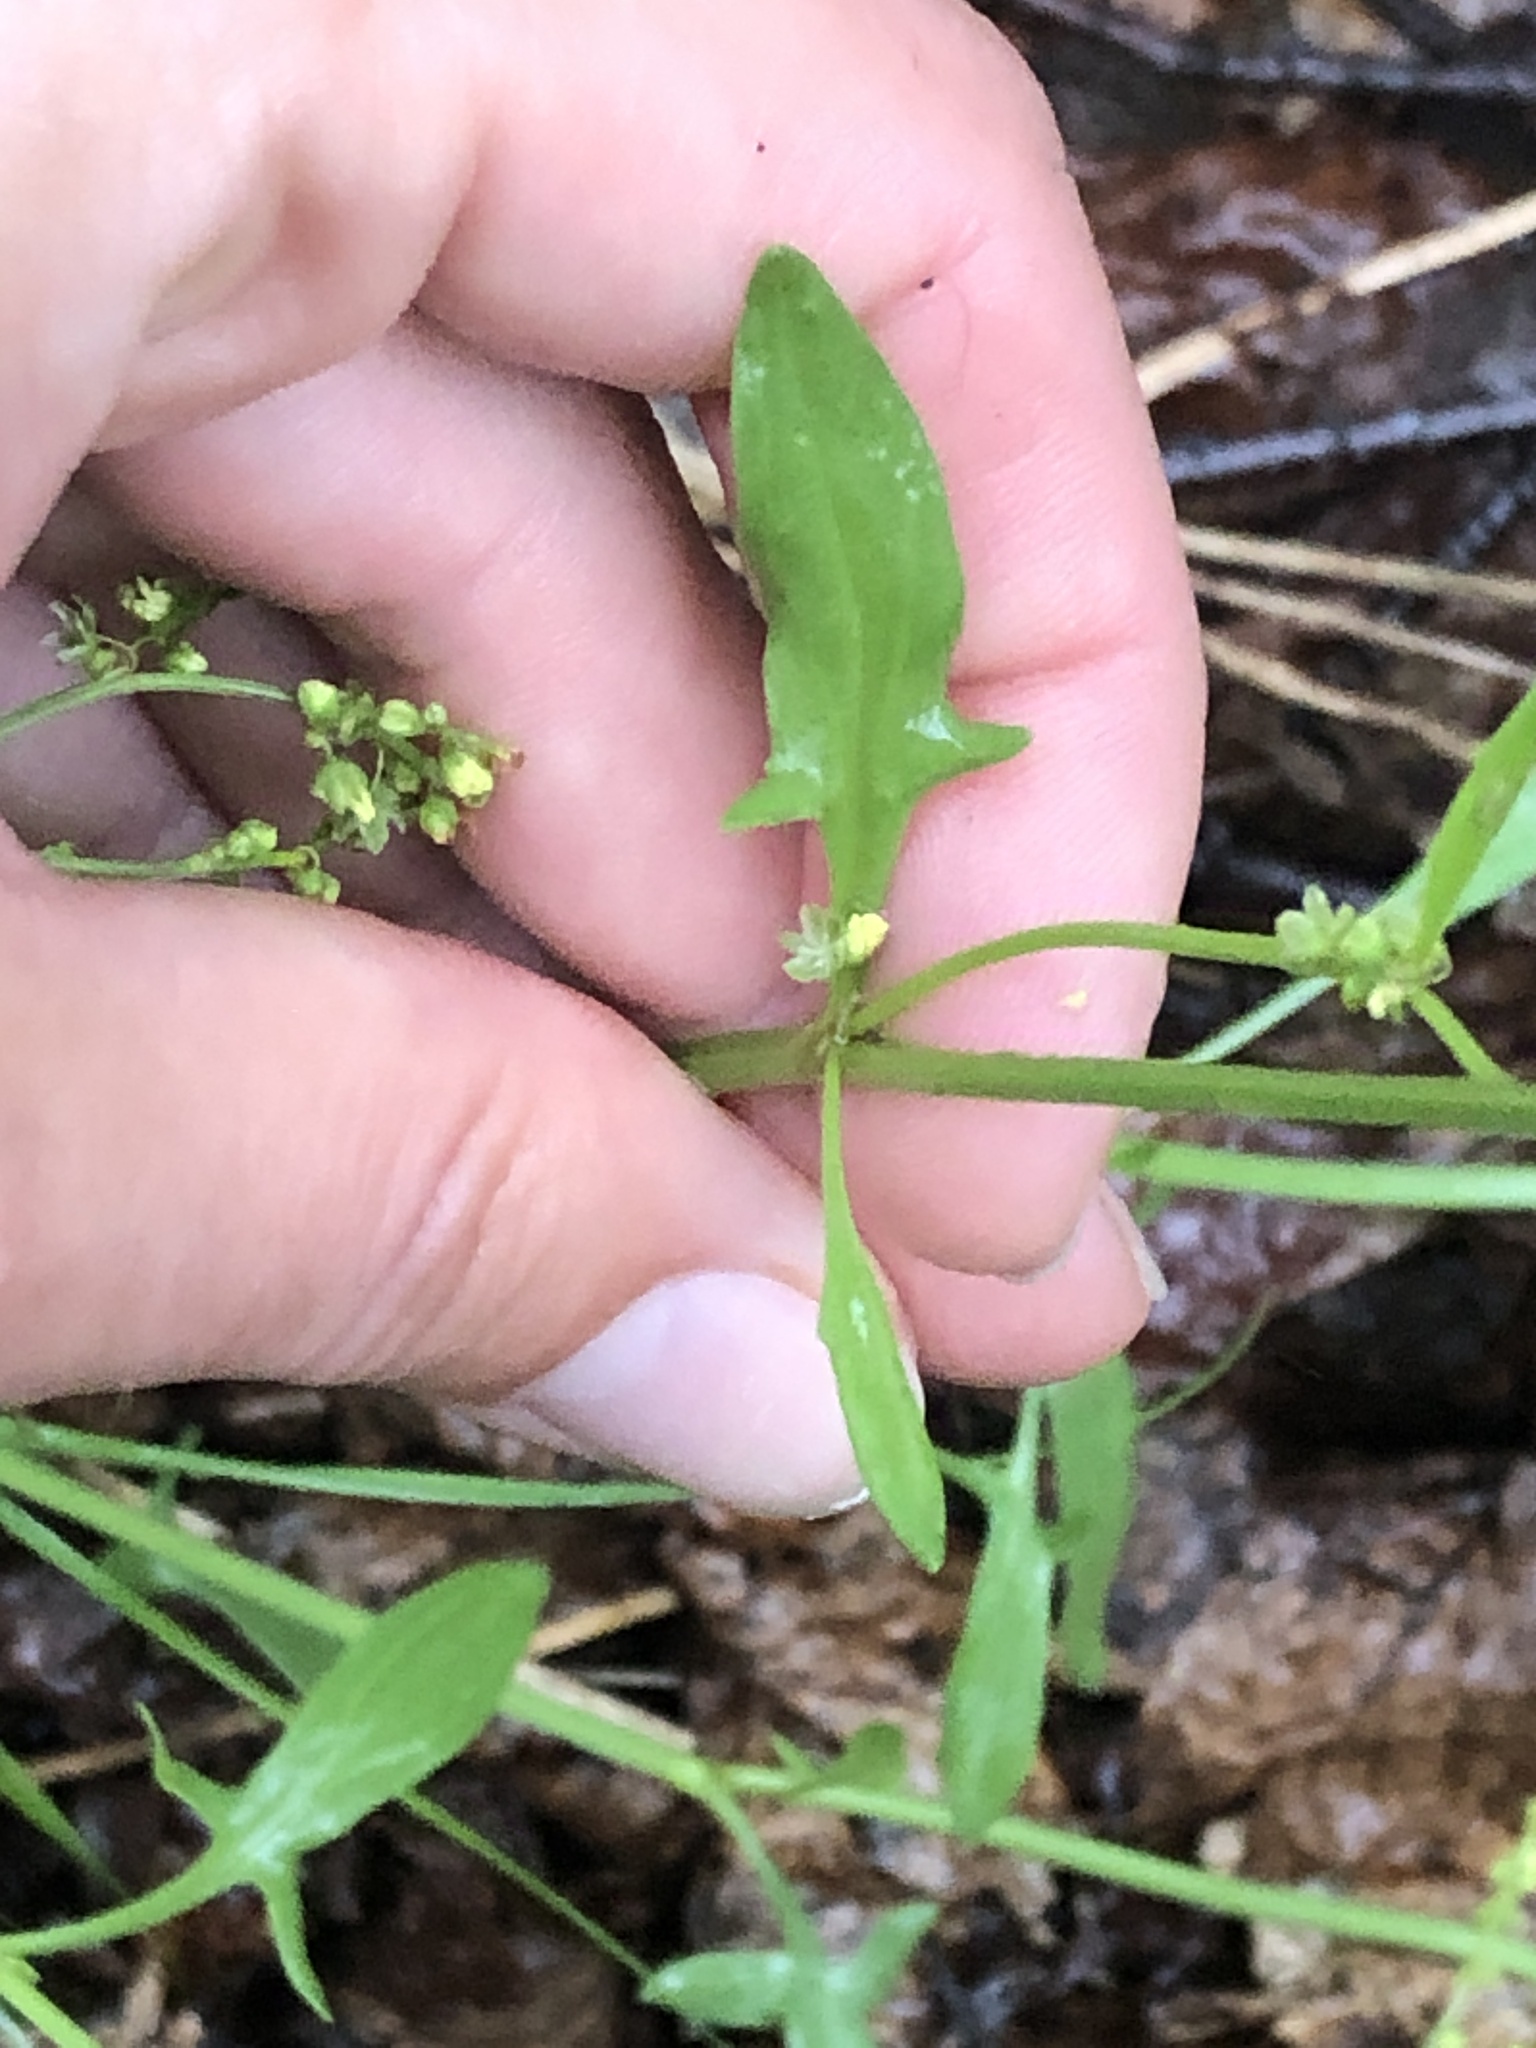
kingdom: Plantae
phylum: Tracheophyta
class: Magnoliopsida
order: Caryophyllales
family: Polygonaceae
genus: Rumex
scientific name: Rumex acetosella
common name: Common sheep sorrel
